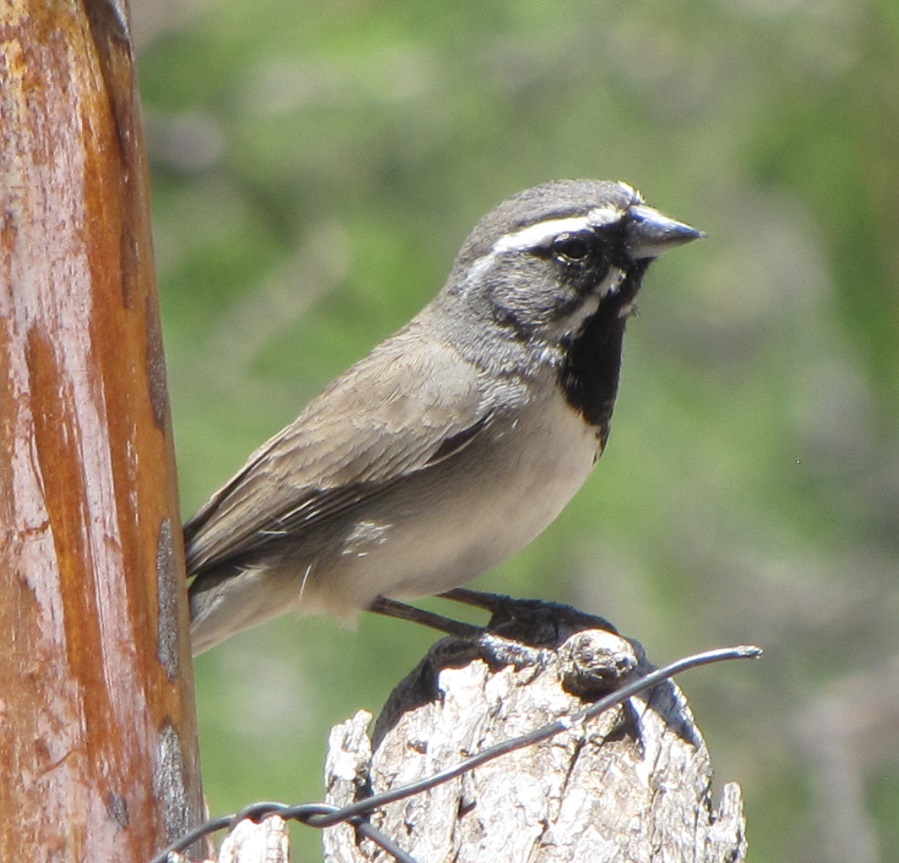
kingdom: Animalia
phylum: Chordata
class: Aves
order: Passeriformes
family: Passerellidae
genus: Amphispiza
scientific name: Amphispiza bilineata
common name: Black-throated sparrow
